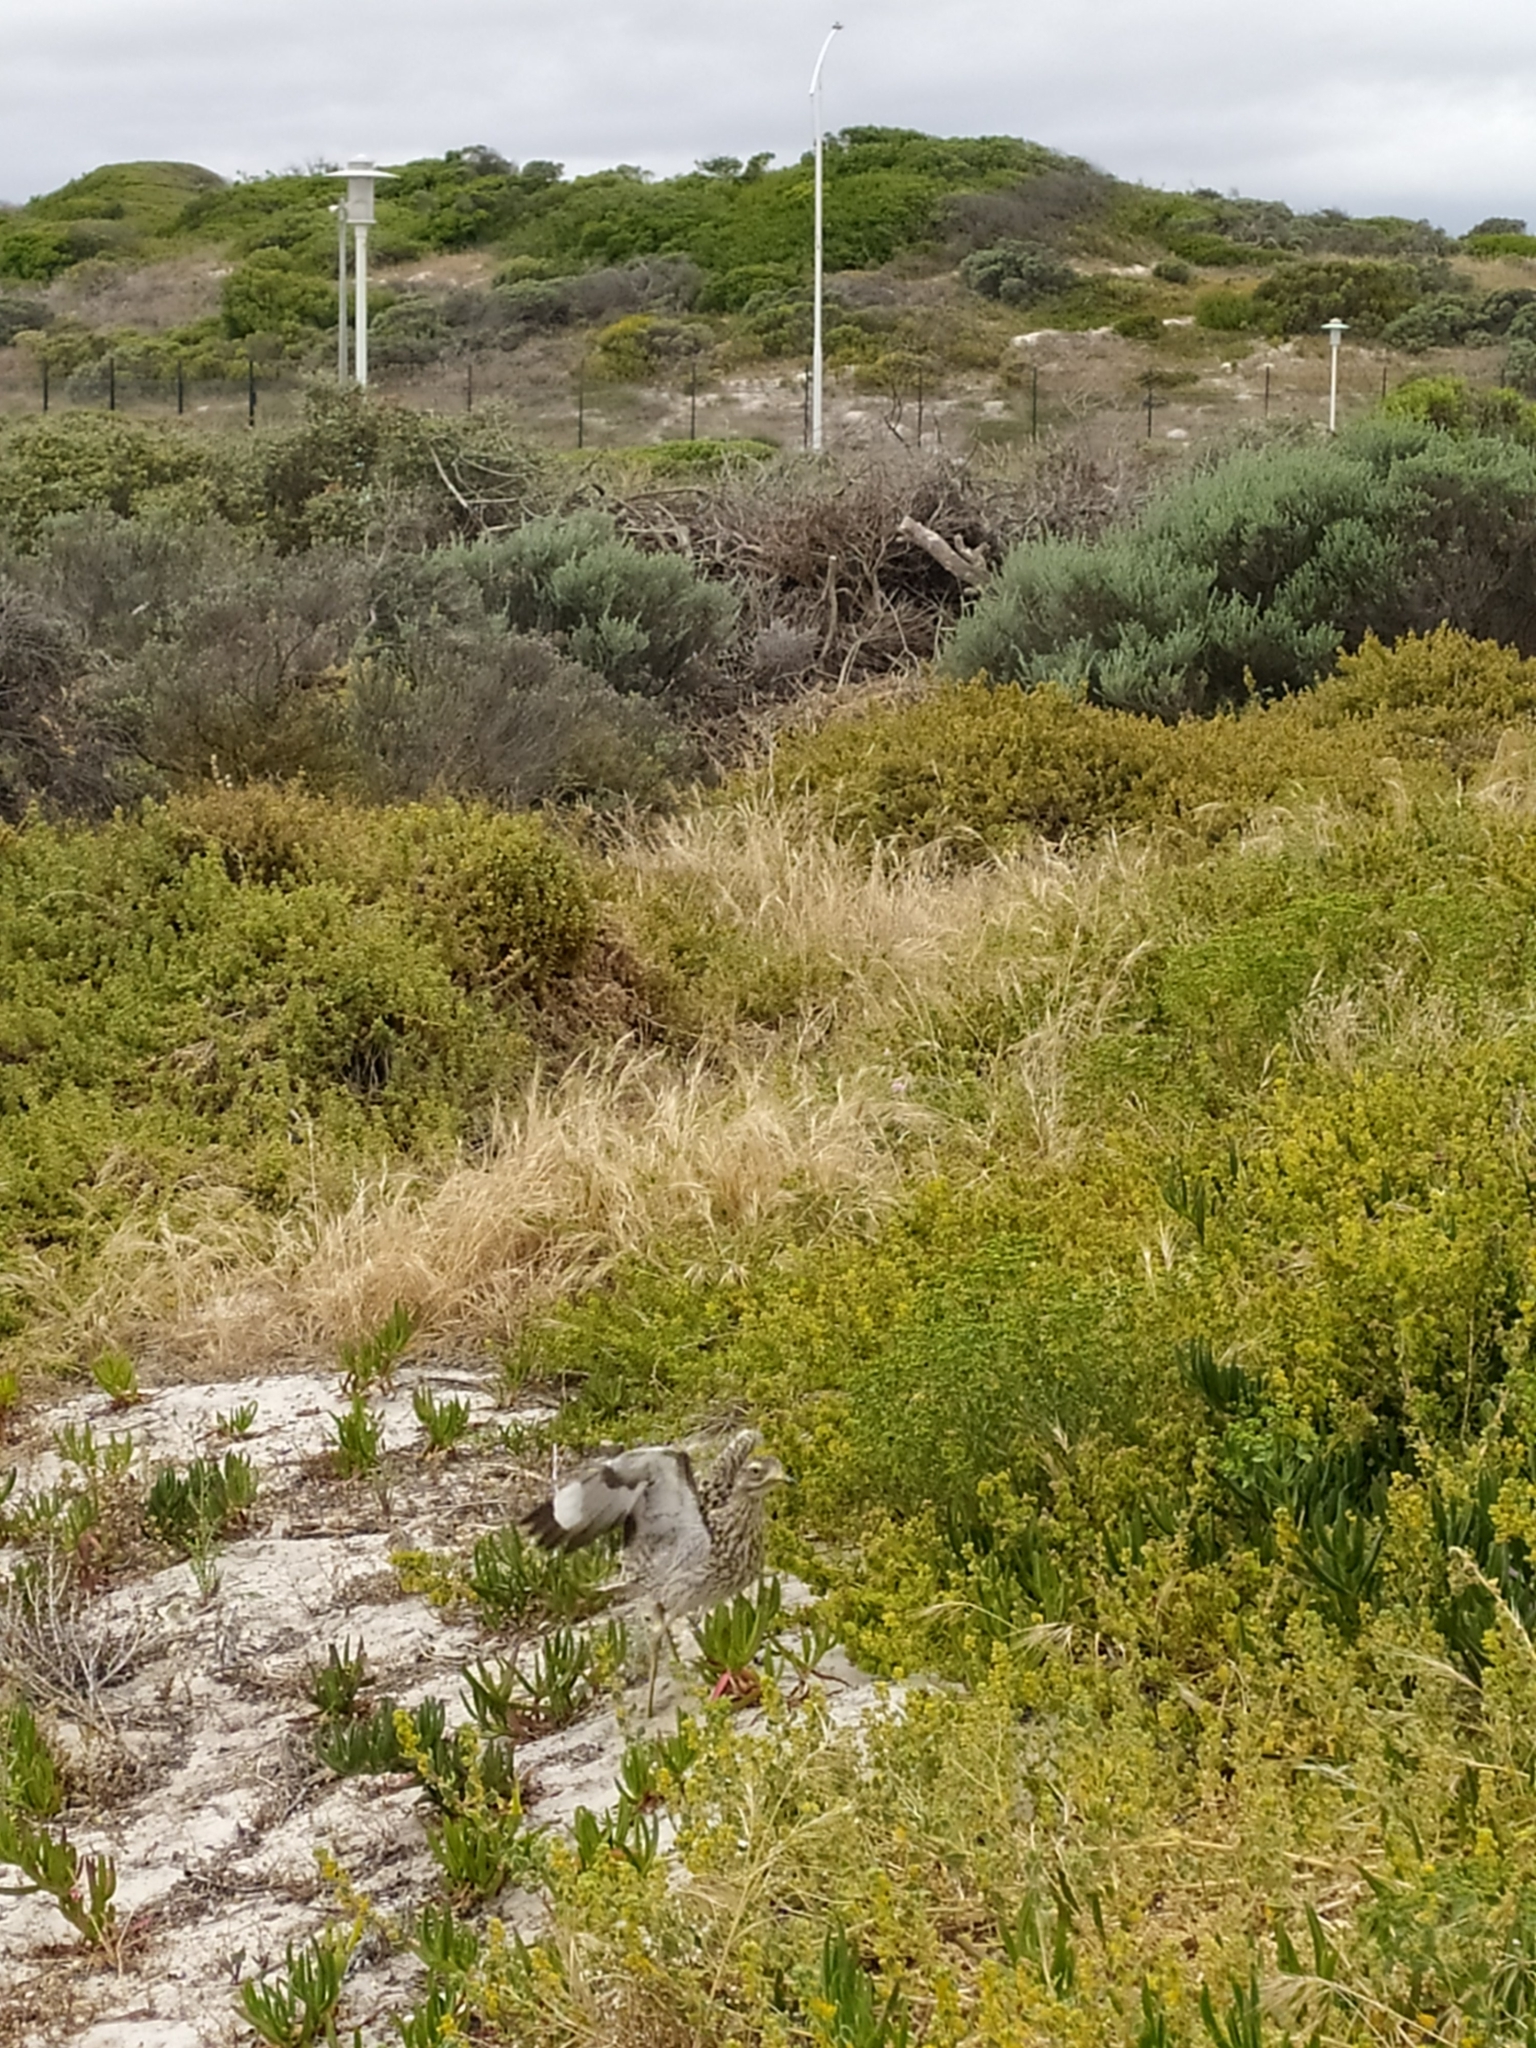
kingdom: Animalia
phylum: Chordata
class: Aves
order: Charadriiformes
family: Burhinidae
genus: Burhinus
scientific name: Burhinus capensis
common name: Spotted thick-knee
